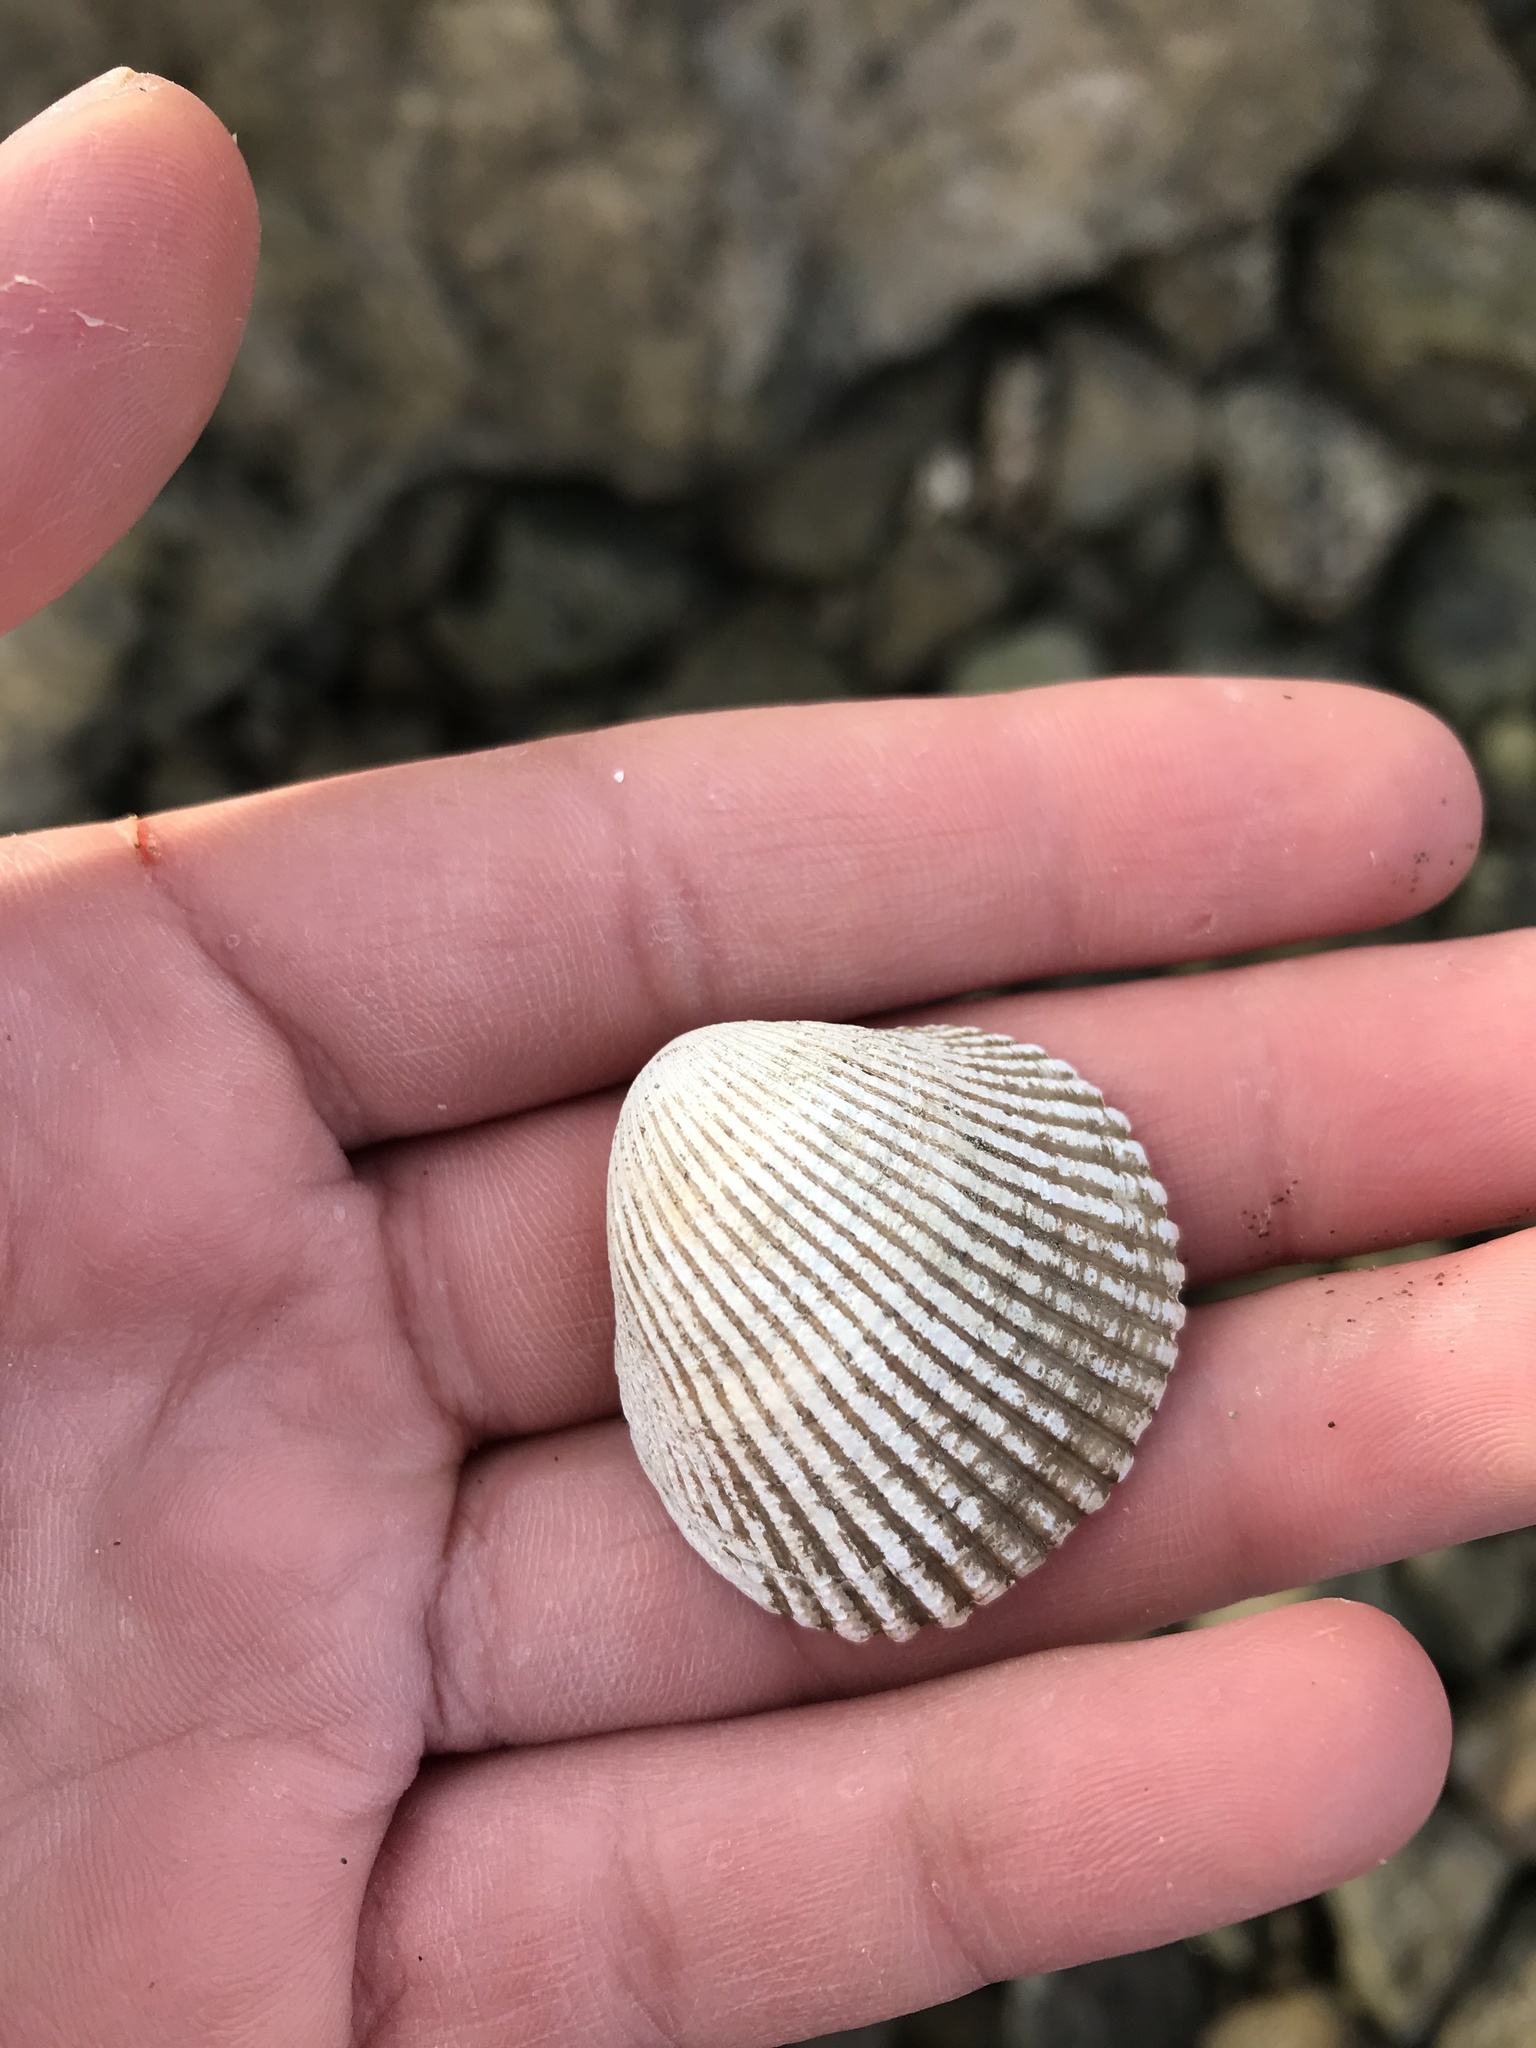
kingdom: Animalia
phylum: Mollusca
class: Bivalvia
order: Cardiida
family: Cardiidae
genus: Clinocardium
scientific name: Clinocardium nuttallii
